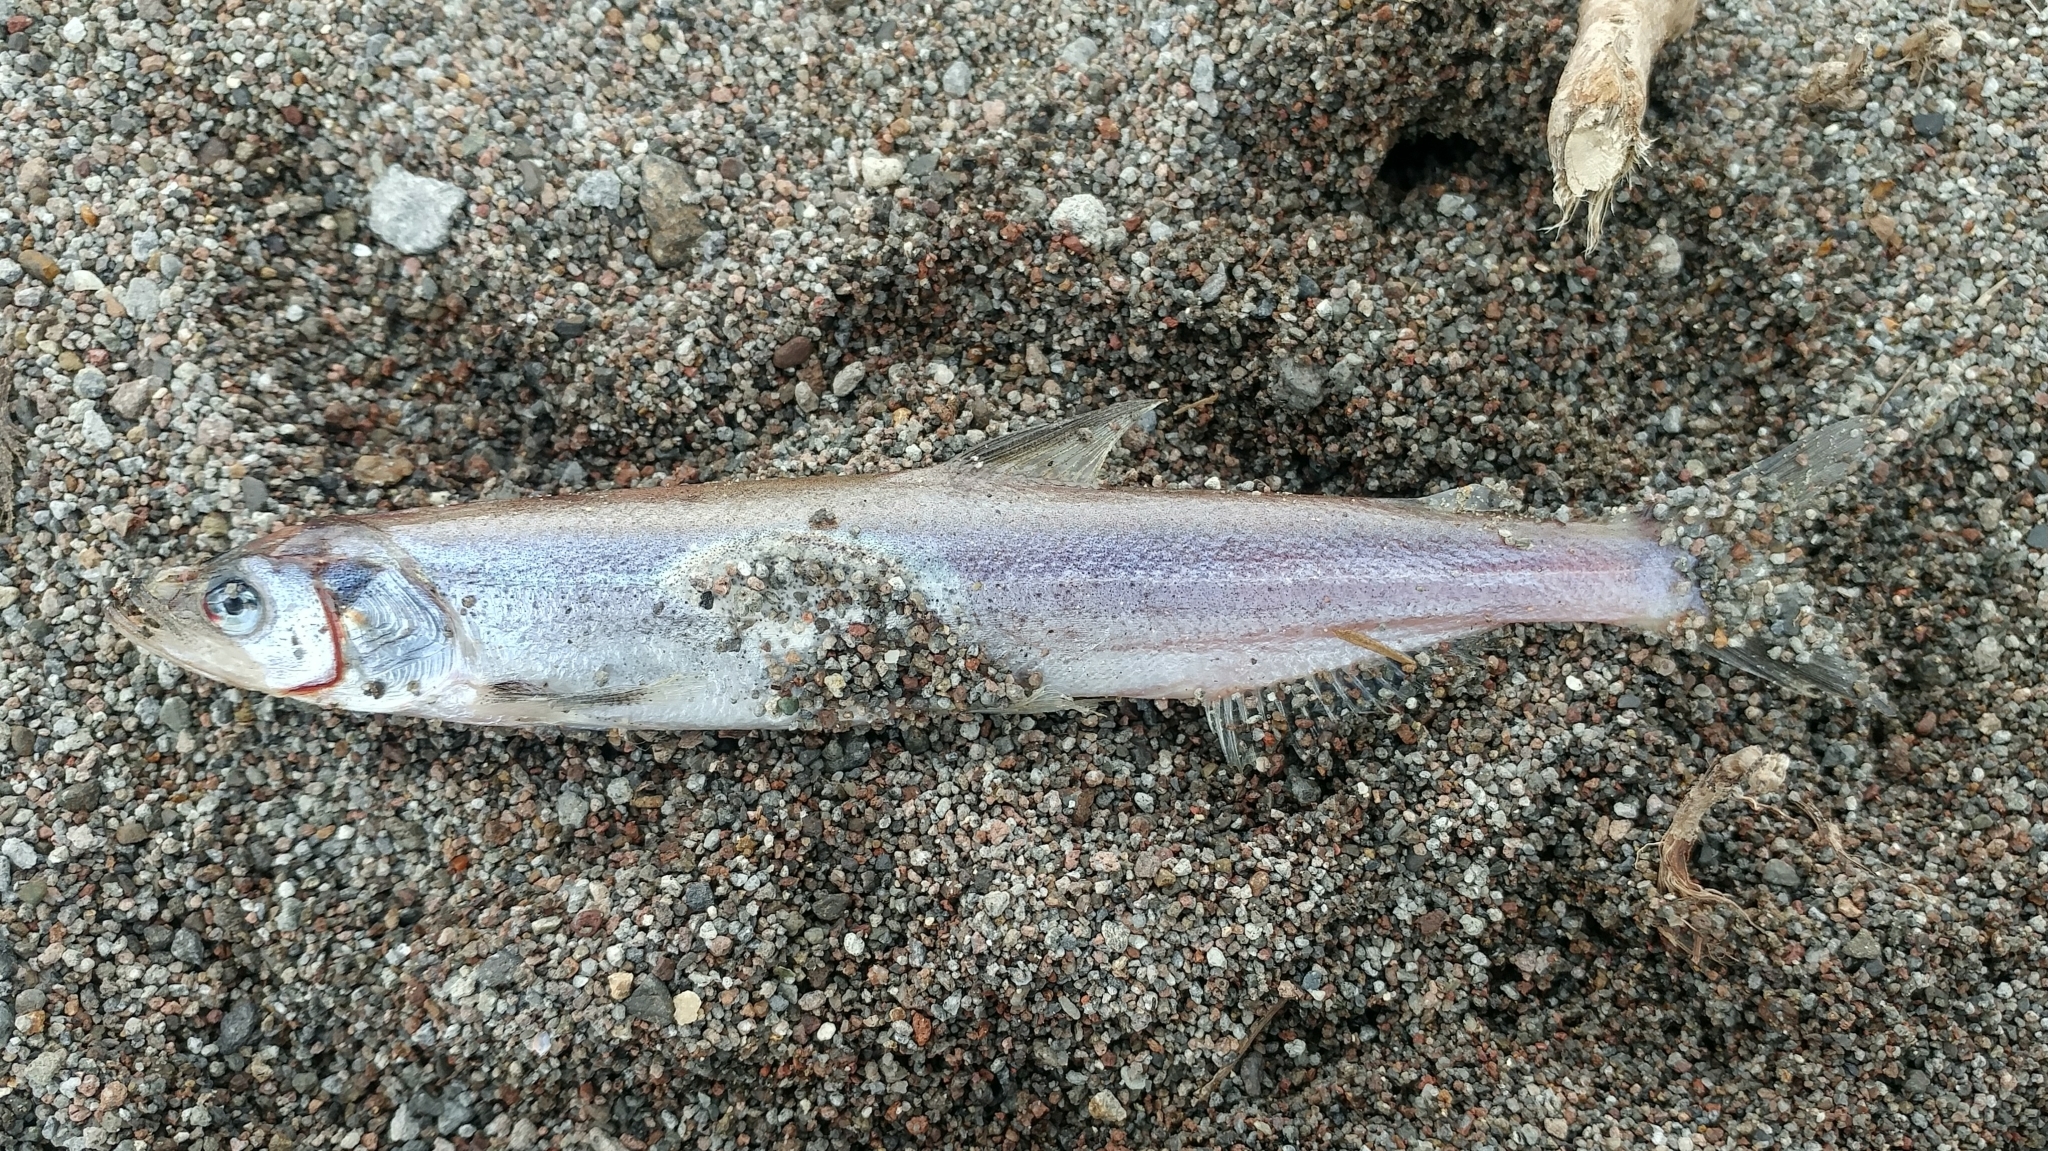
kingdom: Animalia
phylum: Chordata
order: Osmeriformes
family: Osmeridae
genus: Thaleichthys
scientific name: Thaleichthys pacificus
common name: Eulachon
